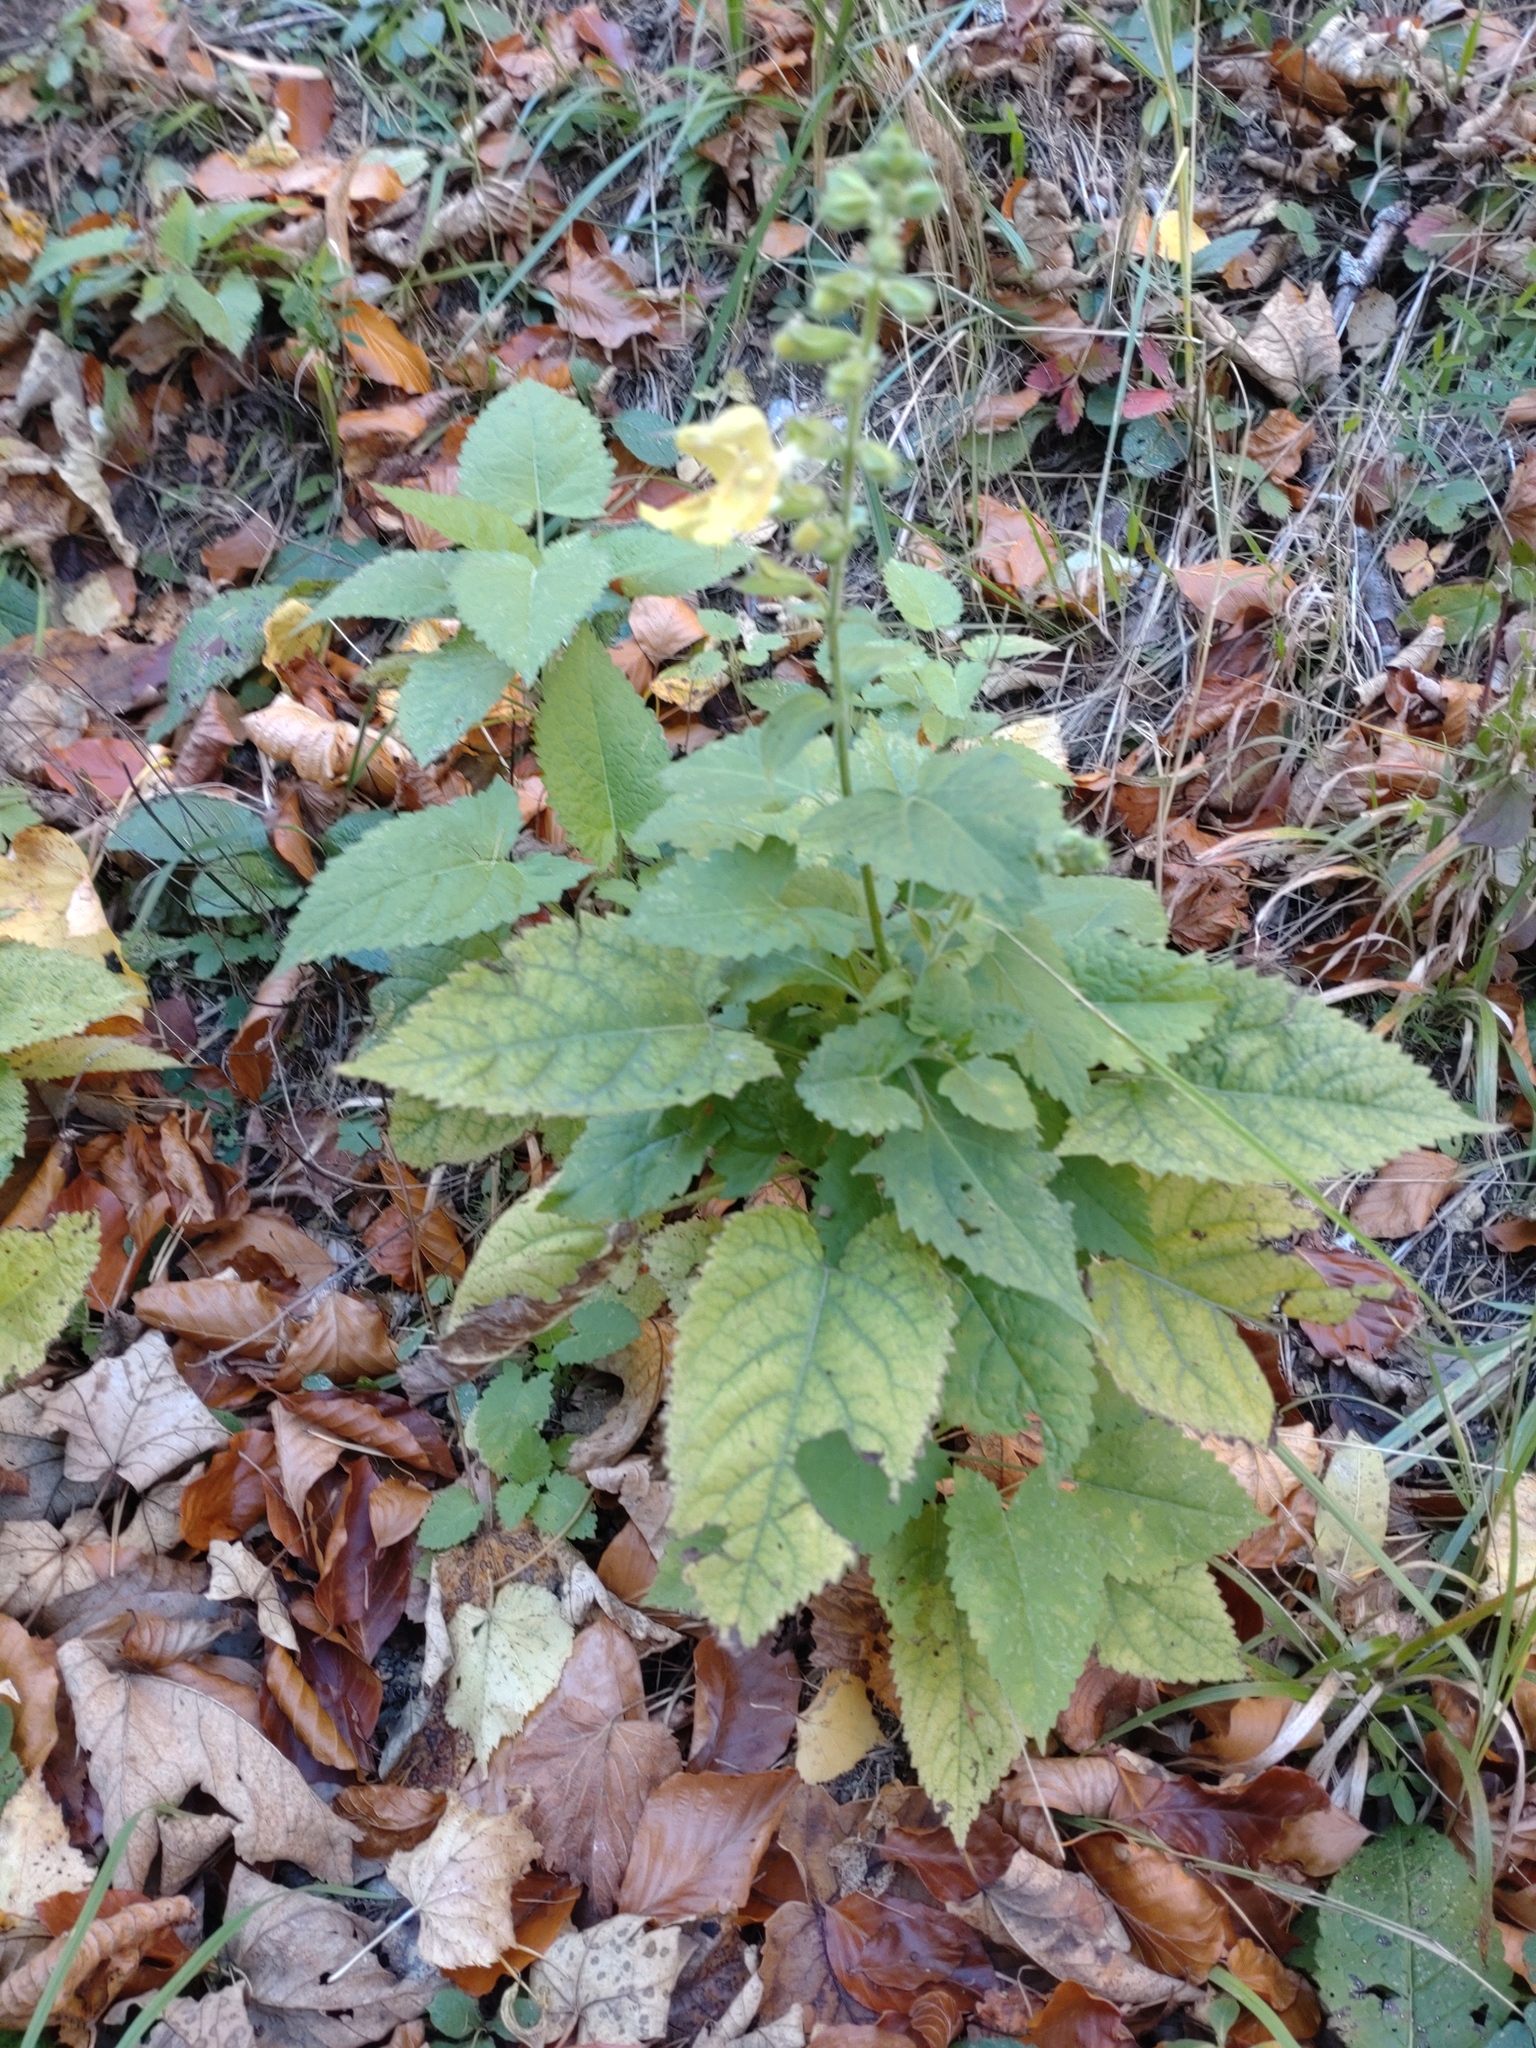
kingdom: Plantae
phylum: Tracheophyta
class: Magnoliopsida
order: Lamiales
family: Lamiaceae
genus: Salvia
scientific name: Salvia glutinosa
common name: Sticky clary
